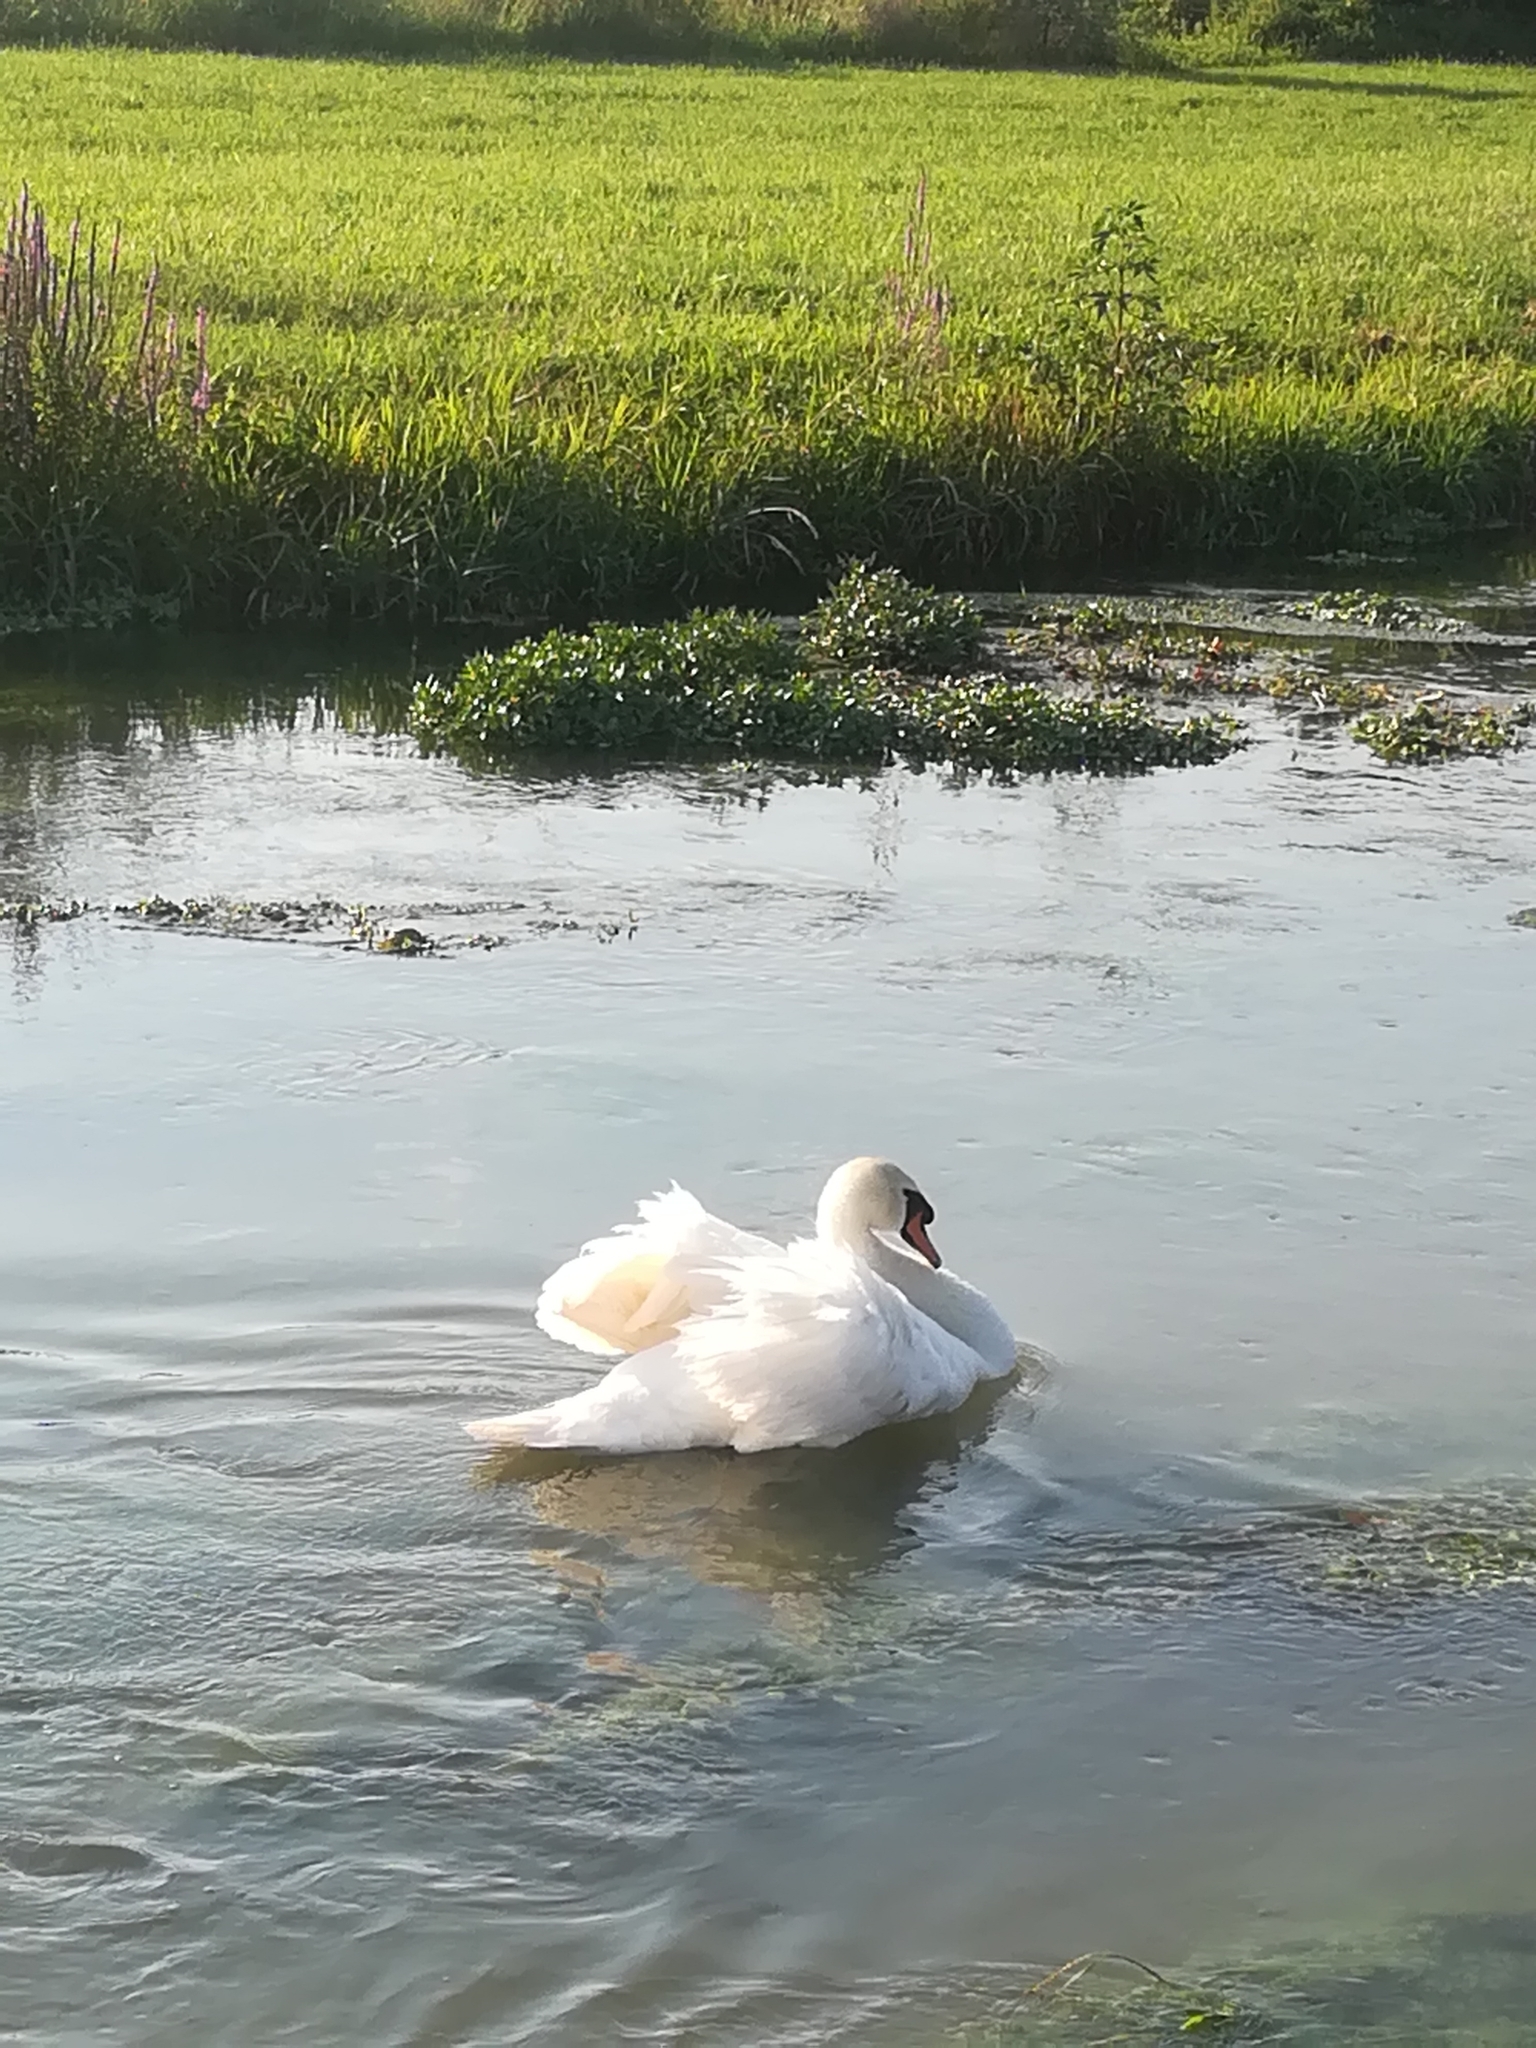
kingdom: Animalia
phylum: Chordata
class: Aves
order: Anseriformes
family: Anatidae
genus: Cygnus
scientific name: Cygnus olor
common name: Mute swan
